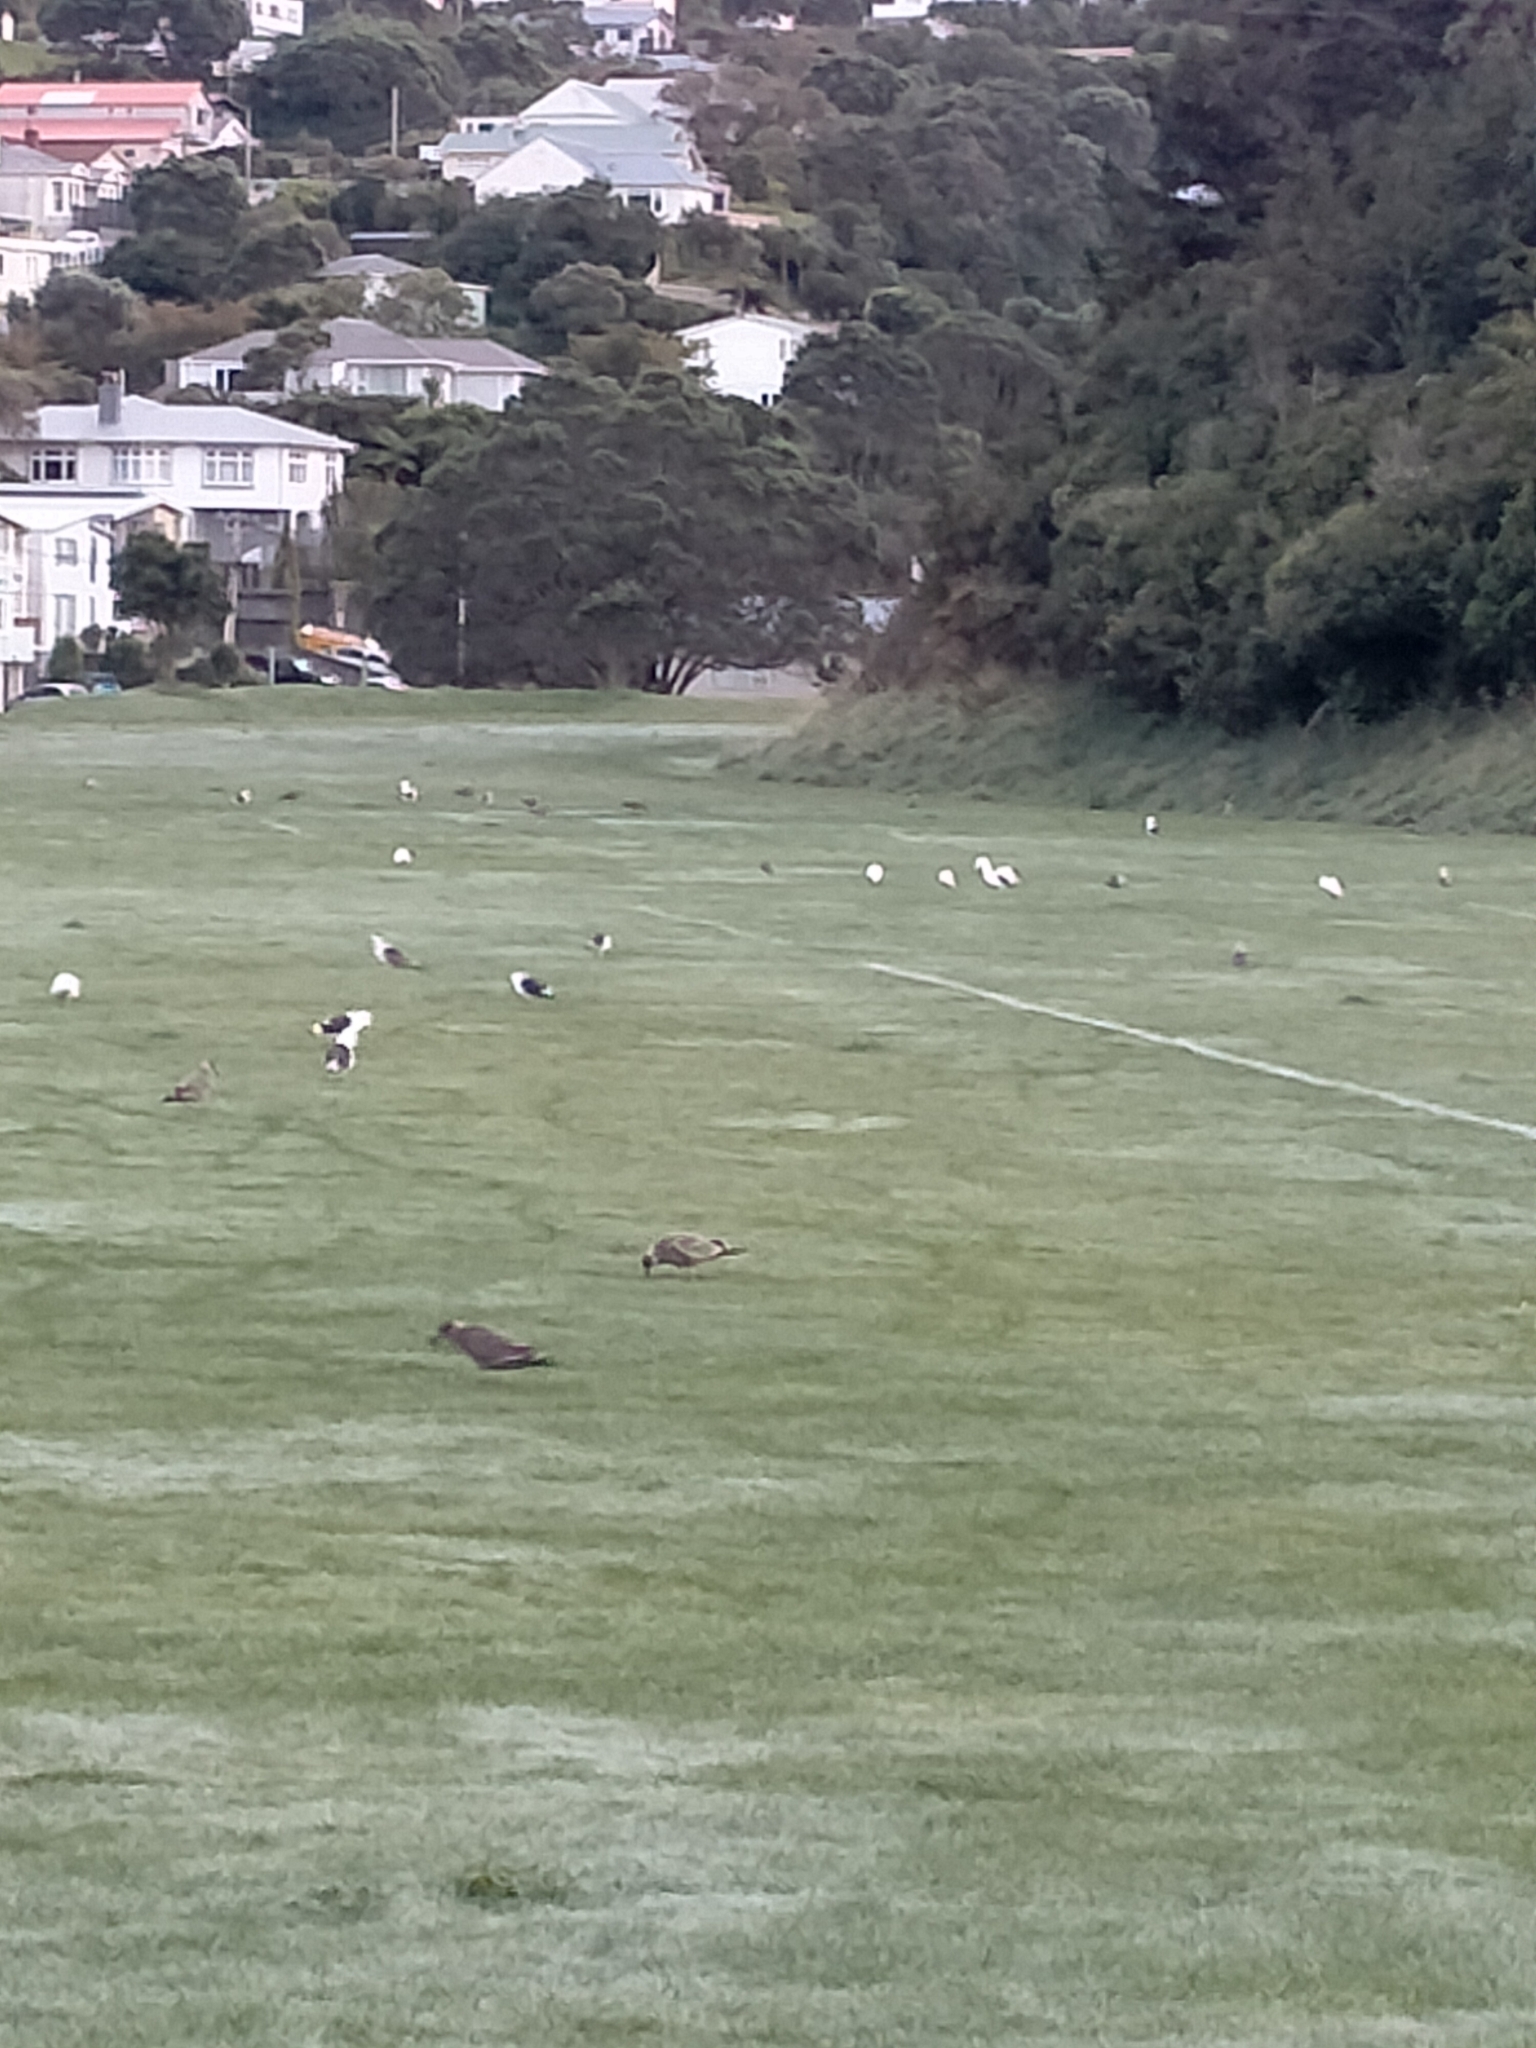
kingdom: Animalia
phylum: Chordata
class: Aves
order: Charadriiformes
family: Laridae
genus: Larus
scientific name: Larus dominicanus
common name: Kelp gull
